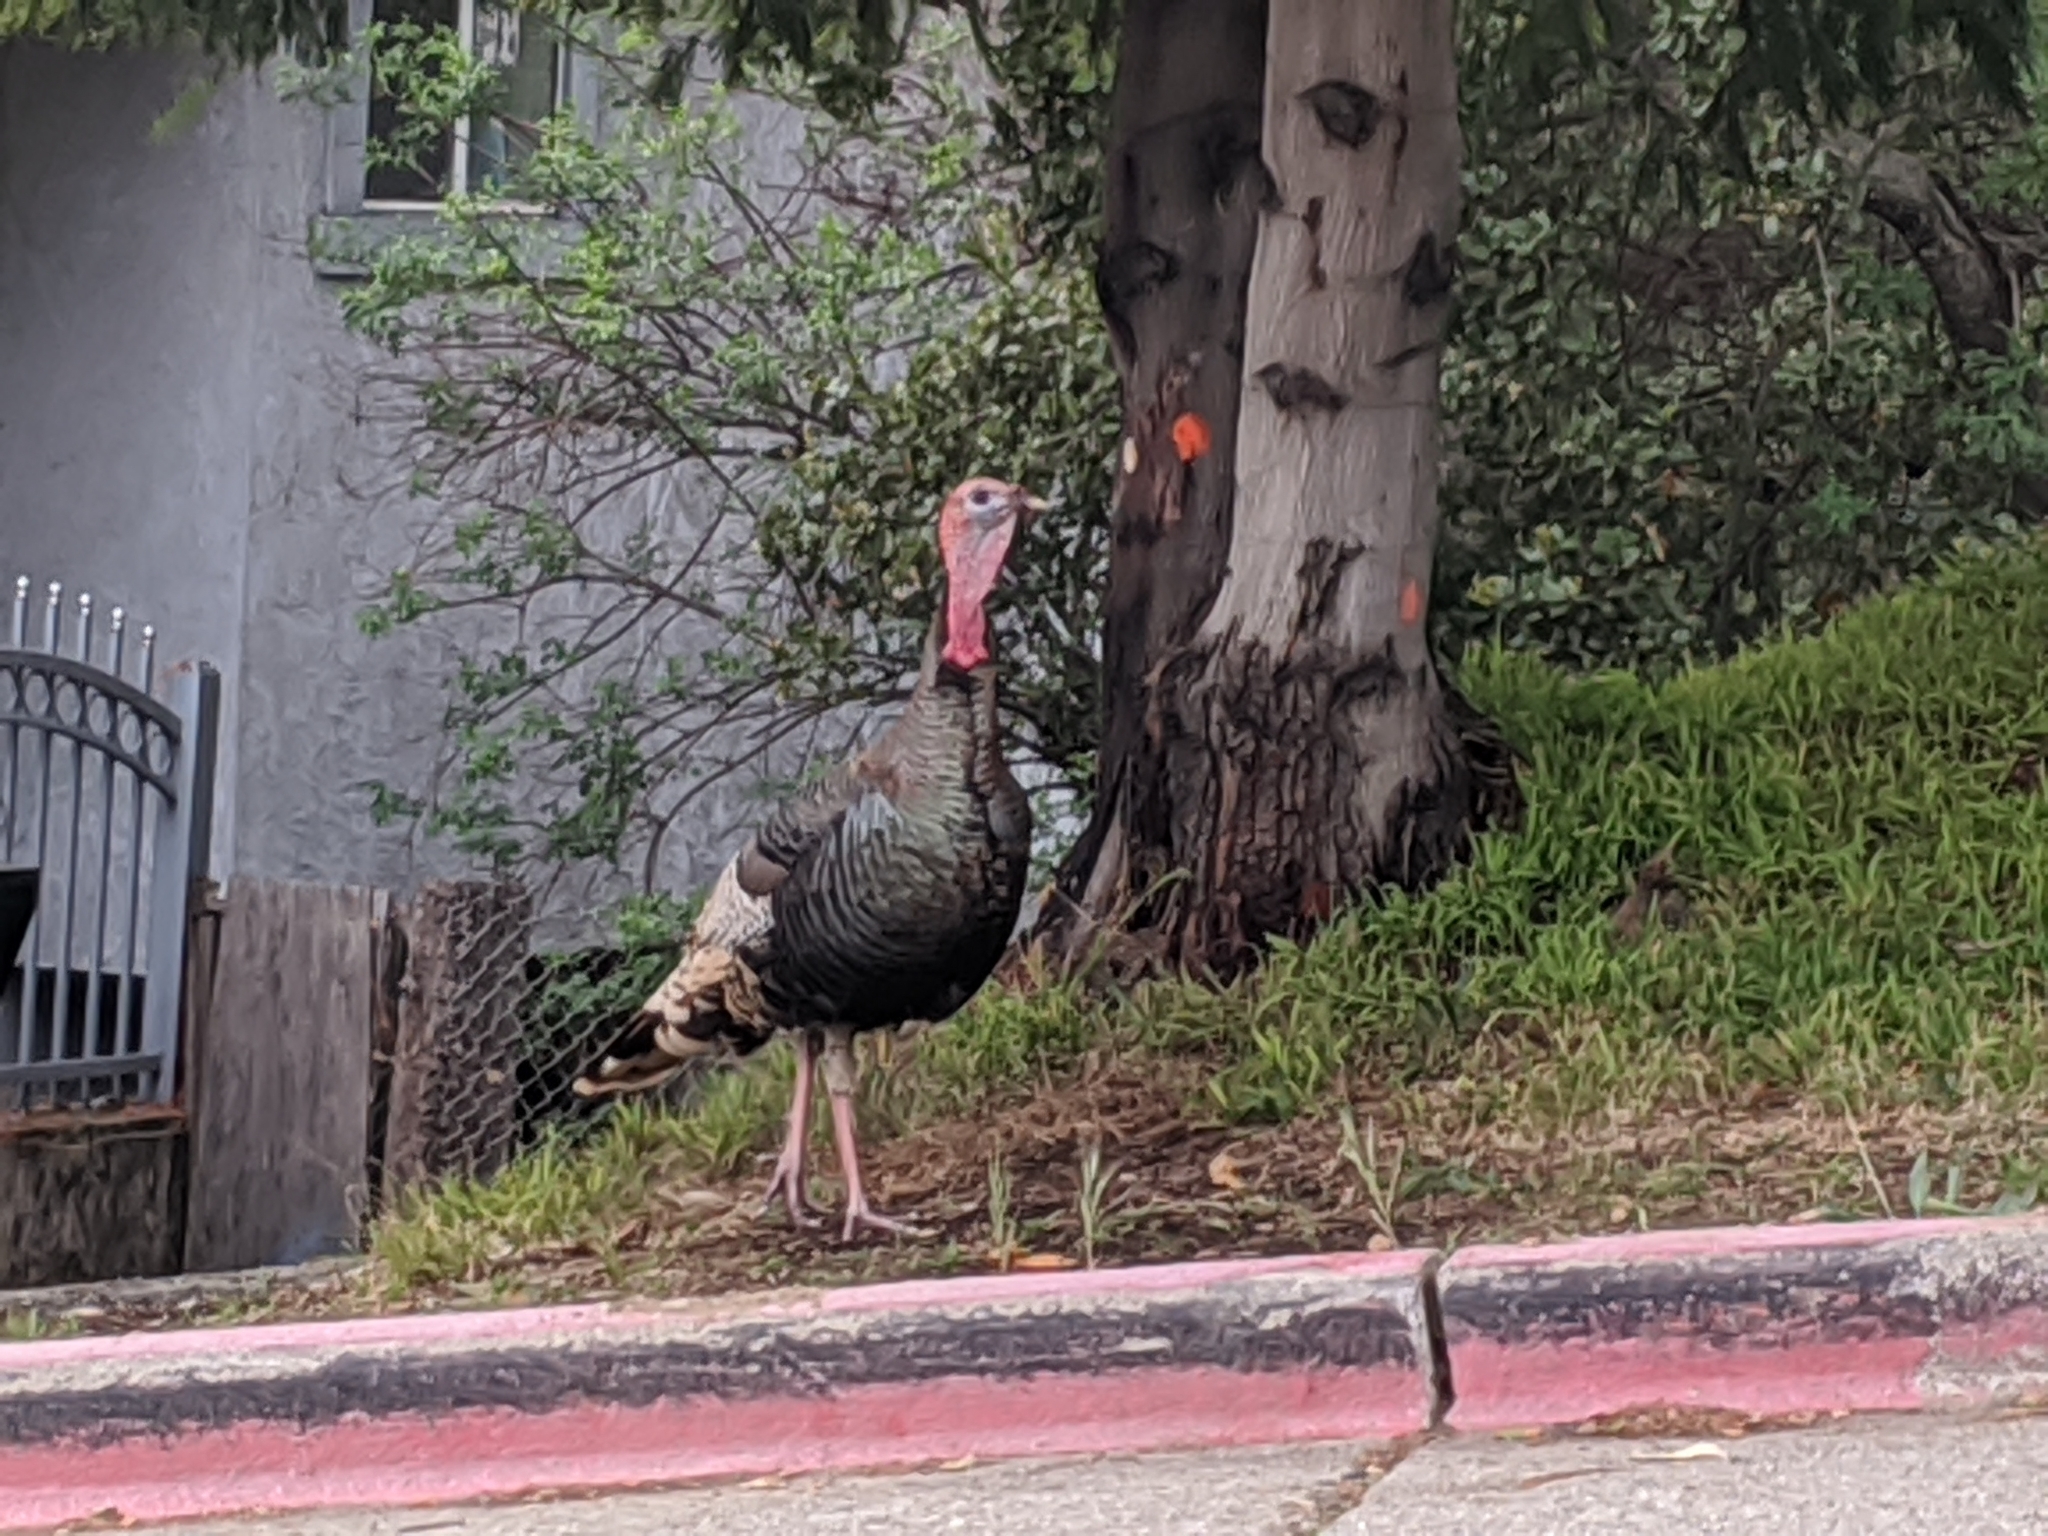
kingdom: Animalia
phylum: Chordata
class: Aves
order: Galliformes
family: Phasianidae
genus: Meleagris
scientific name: Meleagris gallopavo
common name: Wild turkey
